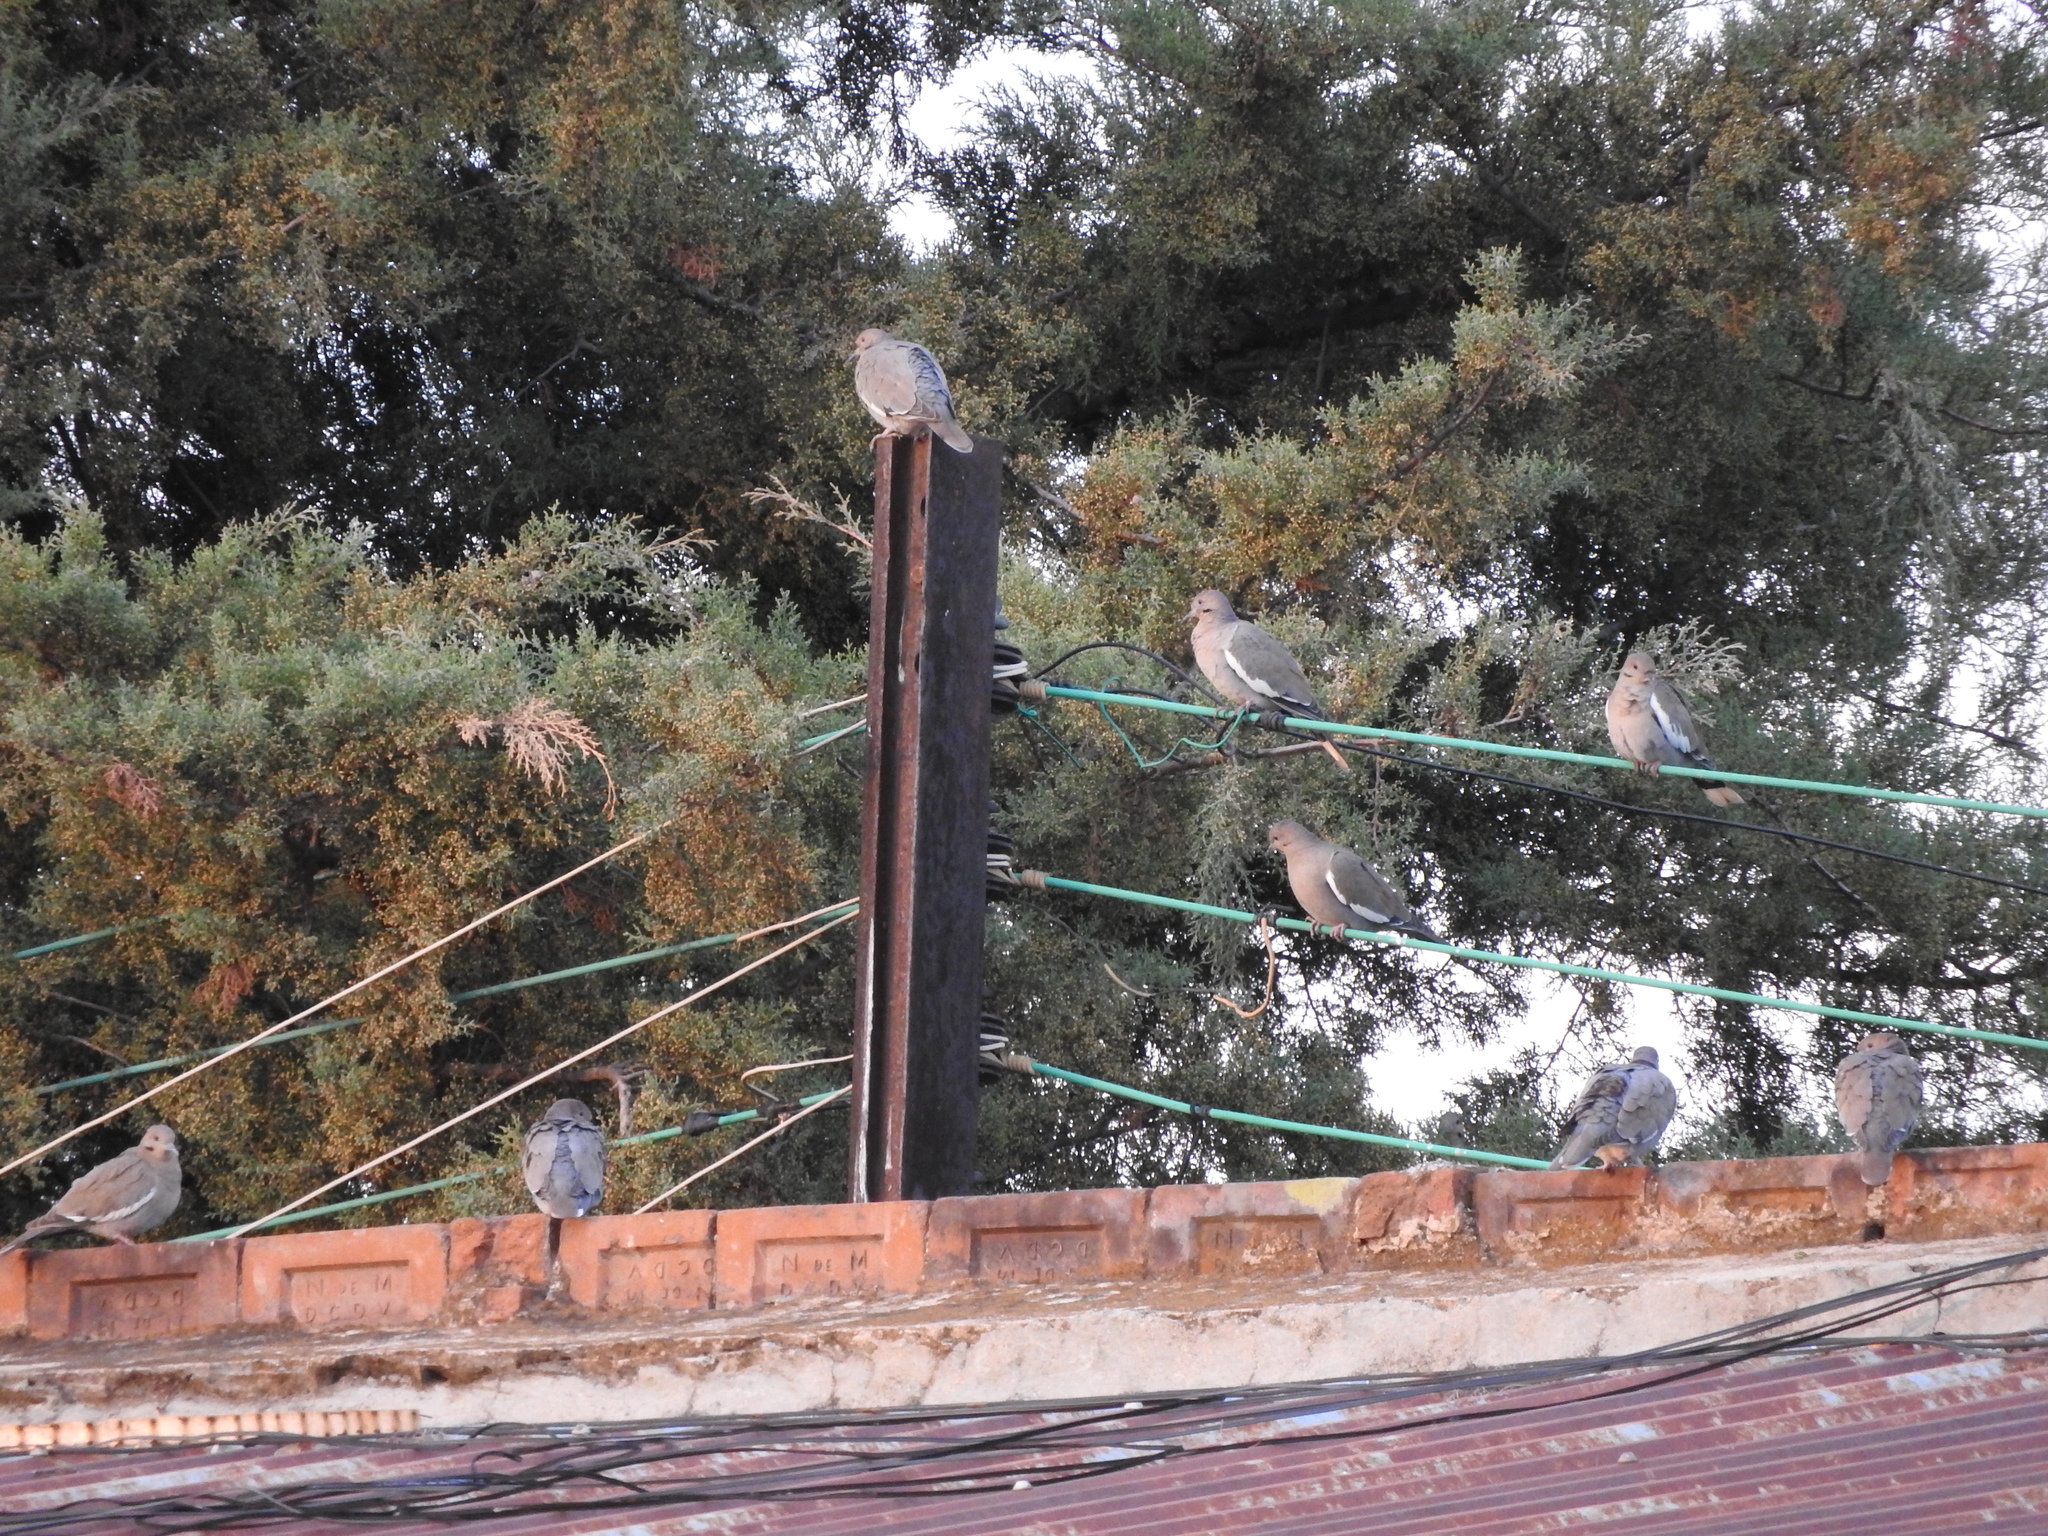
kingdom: Animalia
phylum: Chordata
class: Aves
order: Columbiformes
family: Columbidae
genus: Zenaida
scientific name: Zenaida asiatica
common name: White-winged dove
